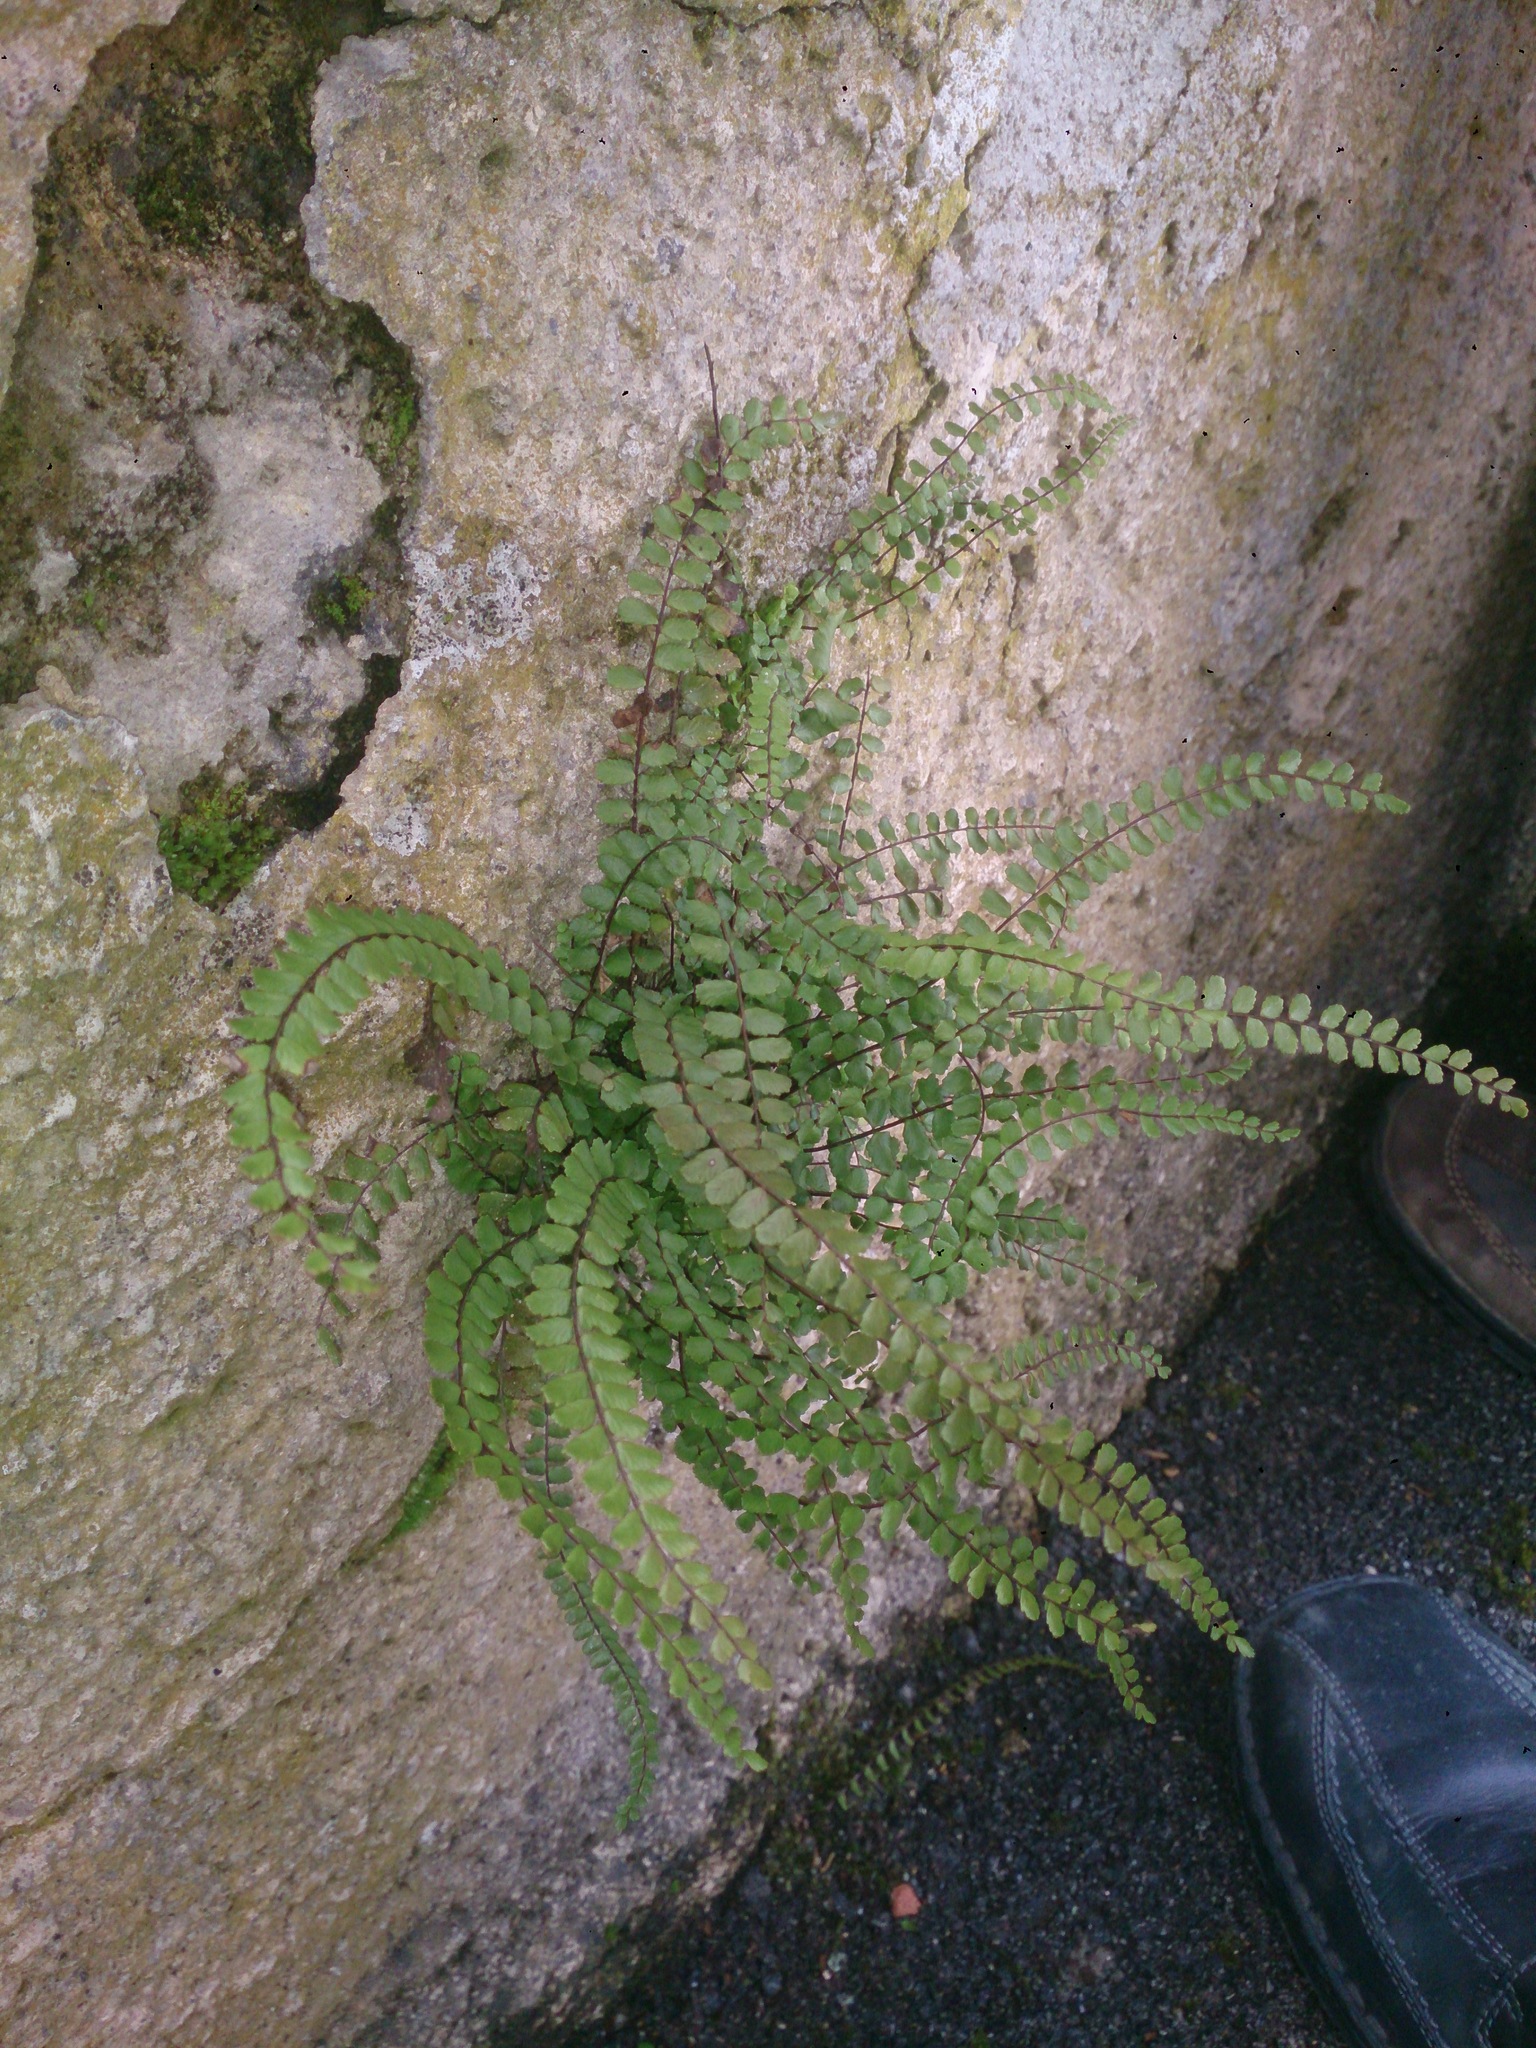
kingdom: Plantae
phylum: Tracheophyta
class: Polypodiopsida
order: Polypodiales
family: Aspleniaceae
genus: Asplenium
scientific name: Asplenium trichomanes
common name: Maidenhair spleenwort
